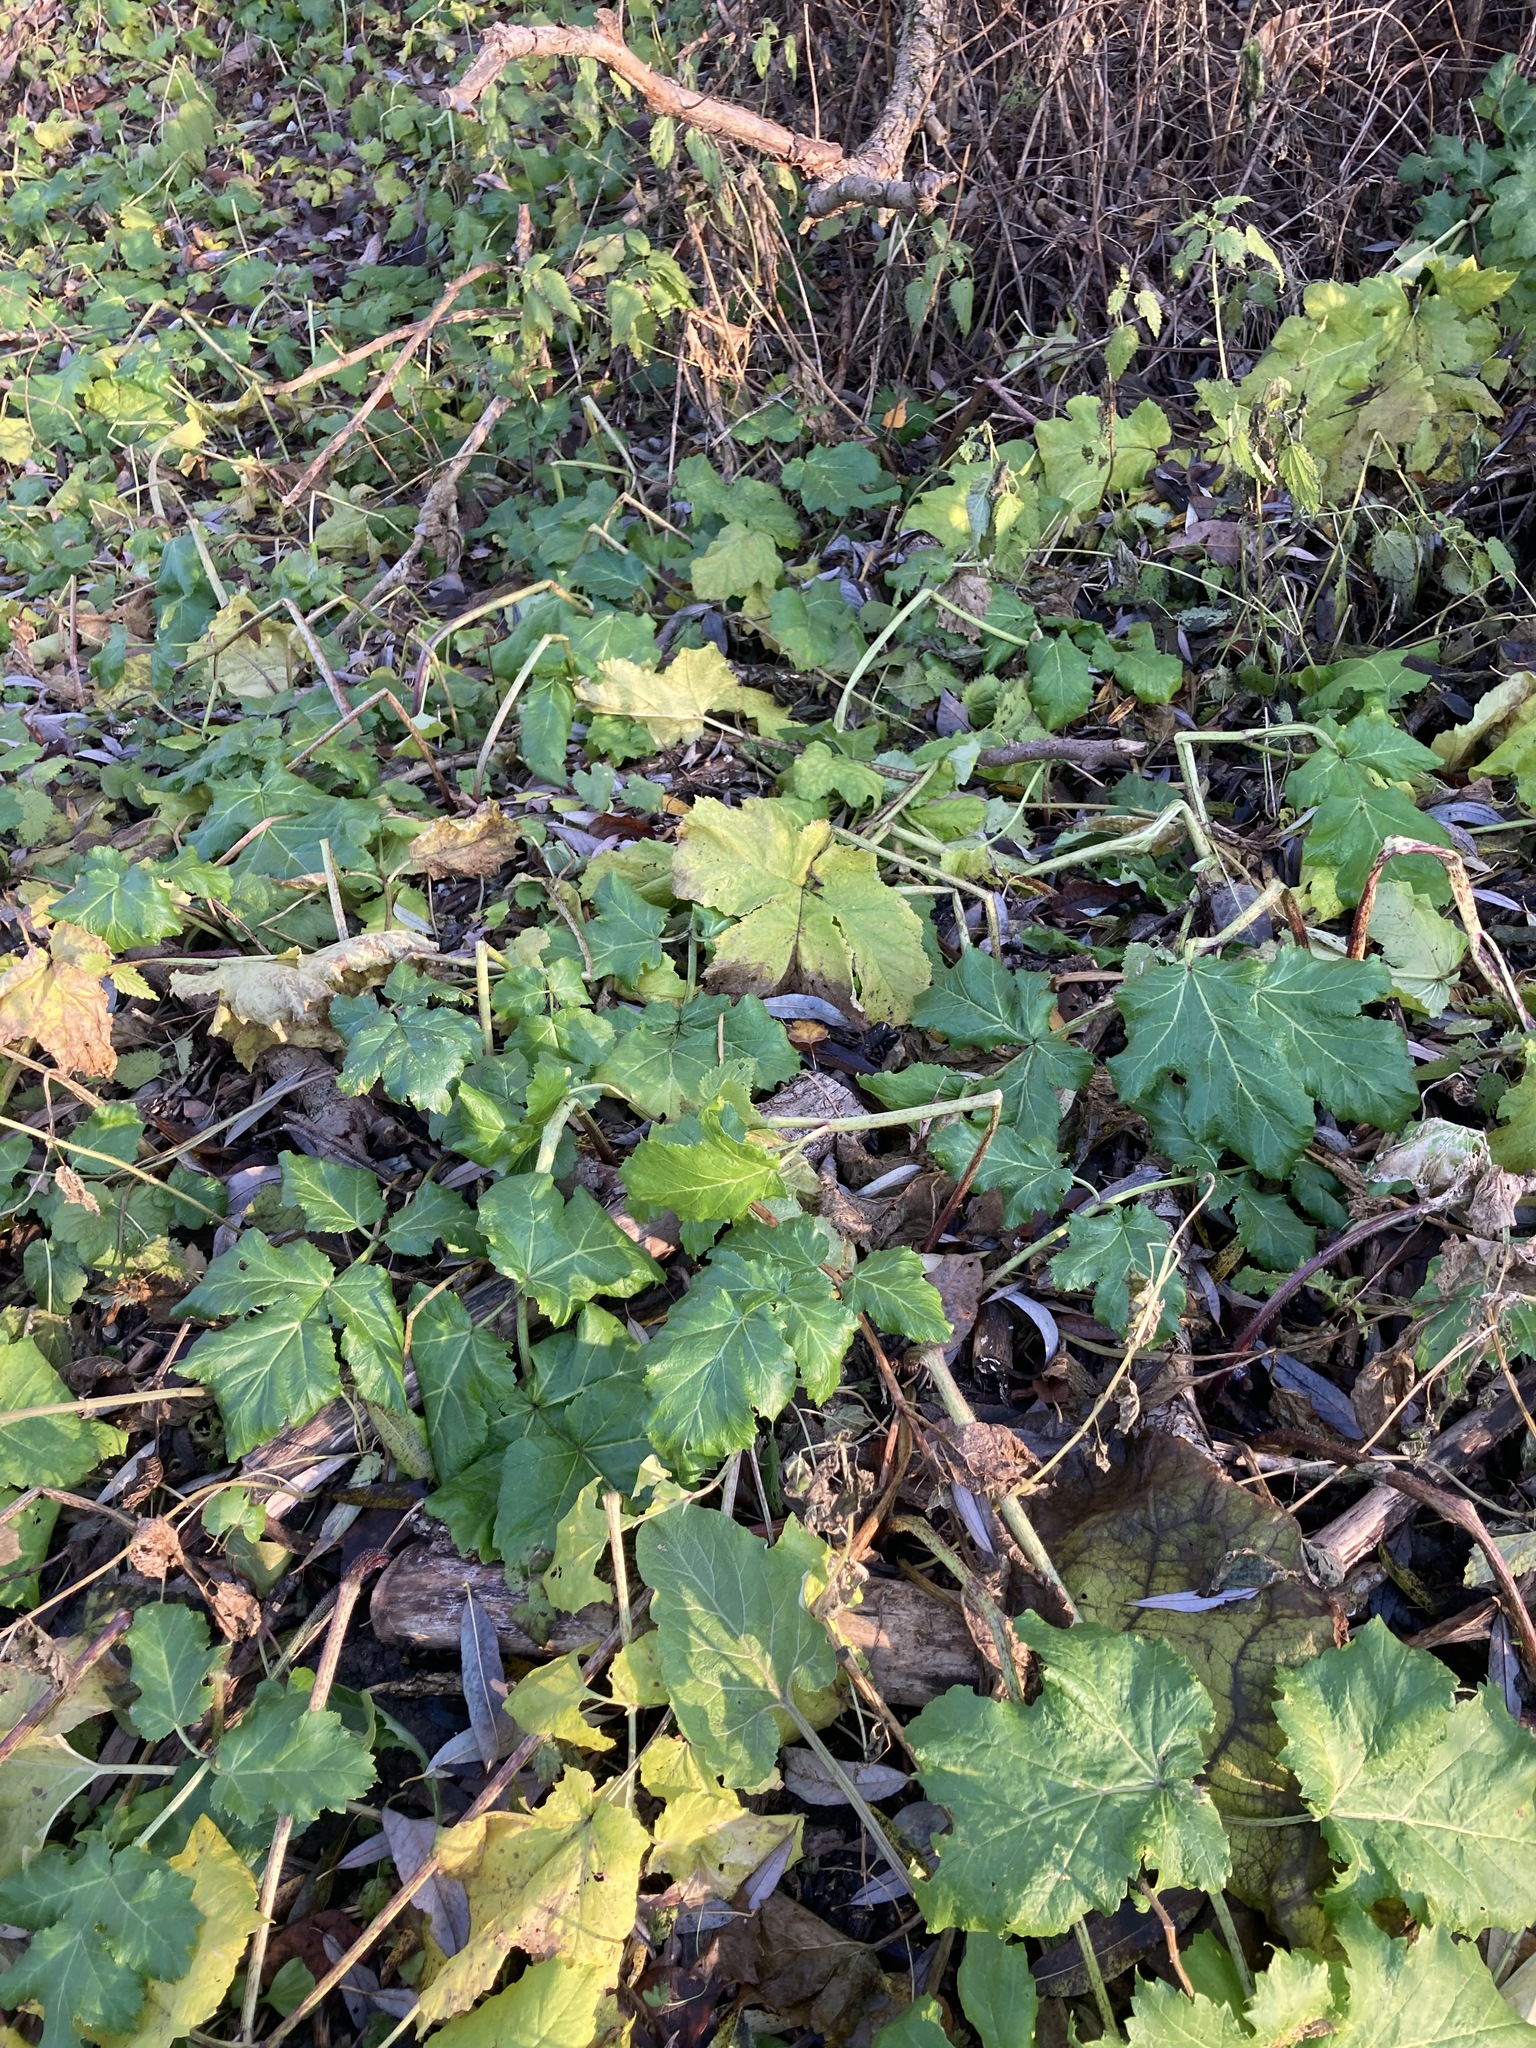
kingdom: Plantae
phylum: Tracheophyta
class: Magnoliopsida
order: Apiales
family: Apiaceae
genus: Heracleum
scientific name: Heracleum sosnowskyi
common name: Sosnowsky's hogweed
